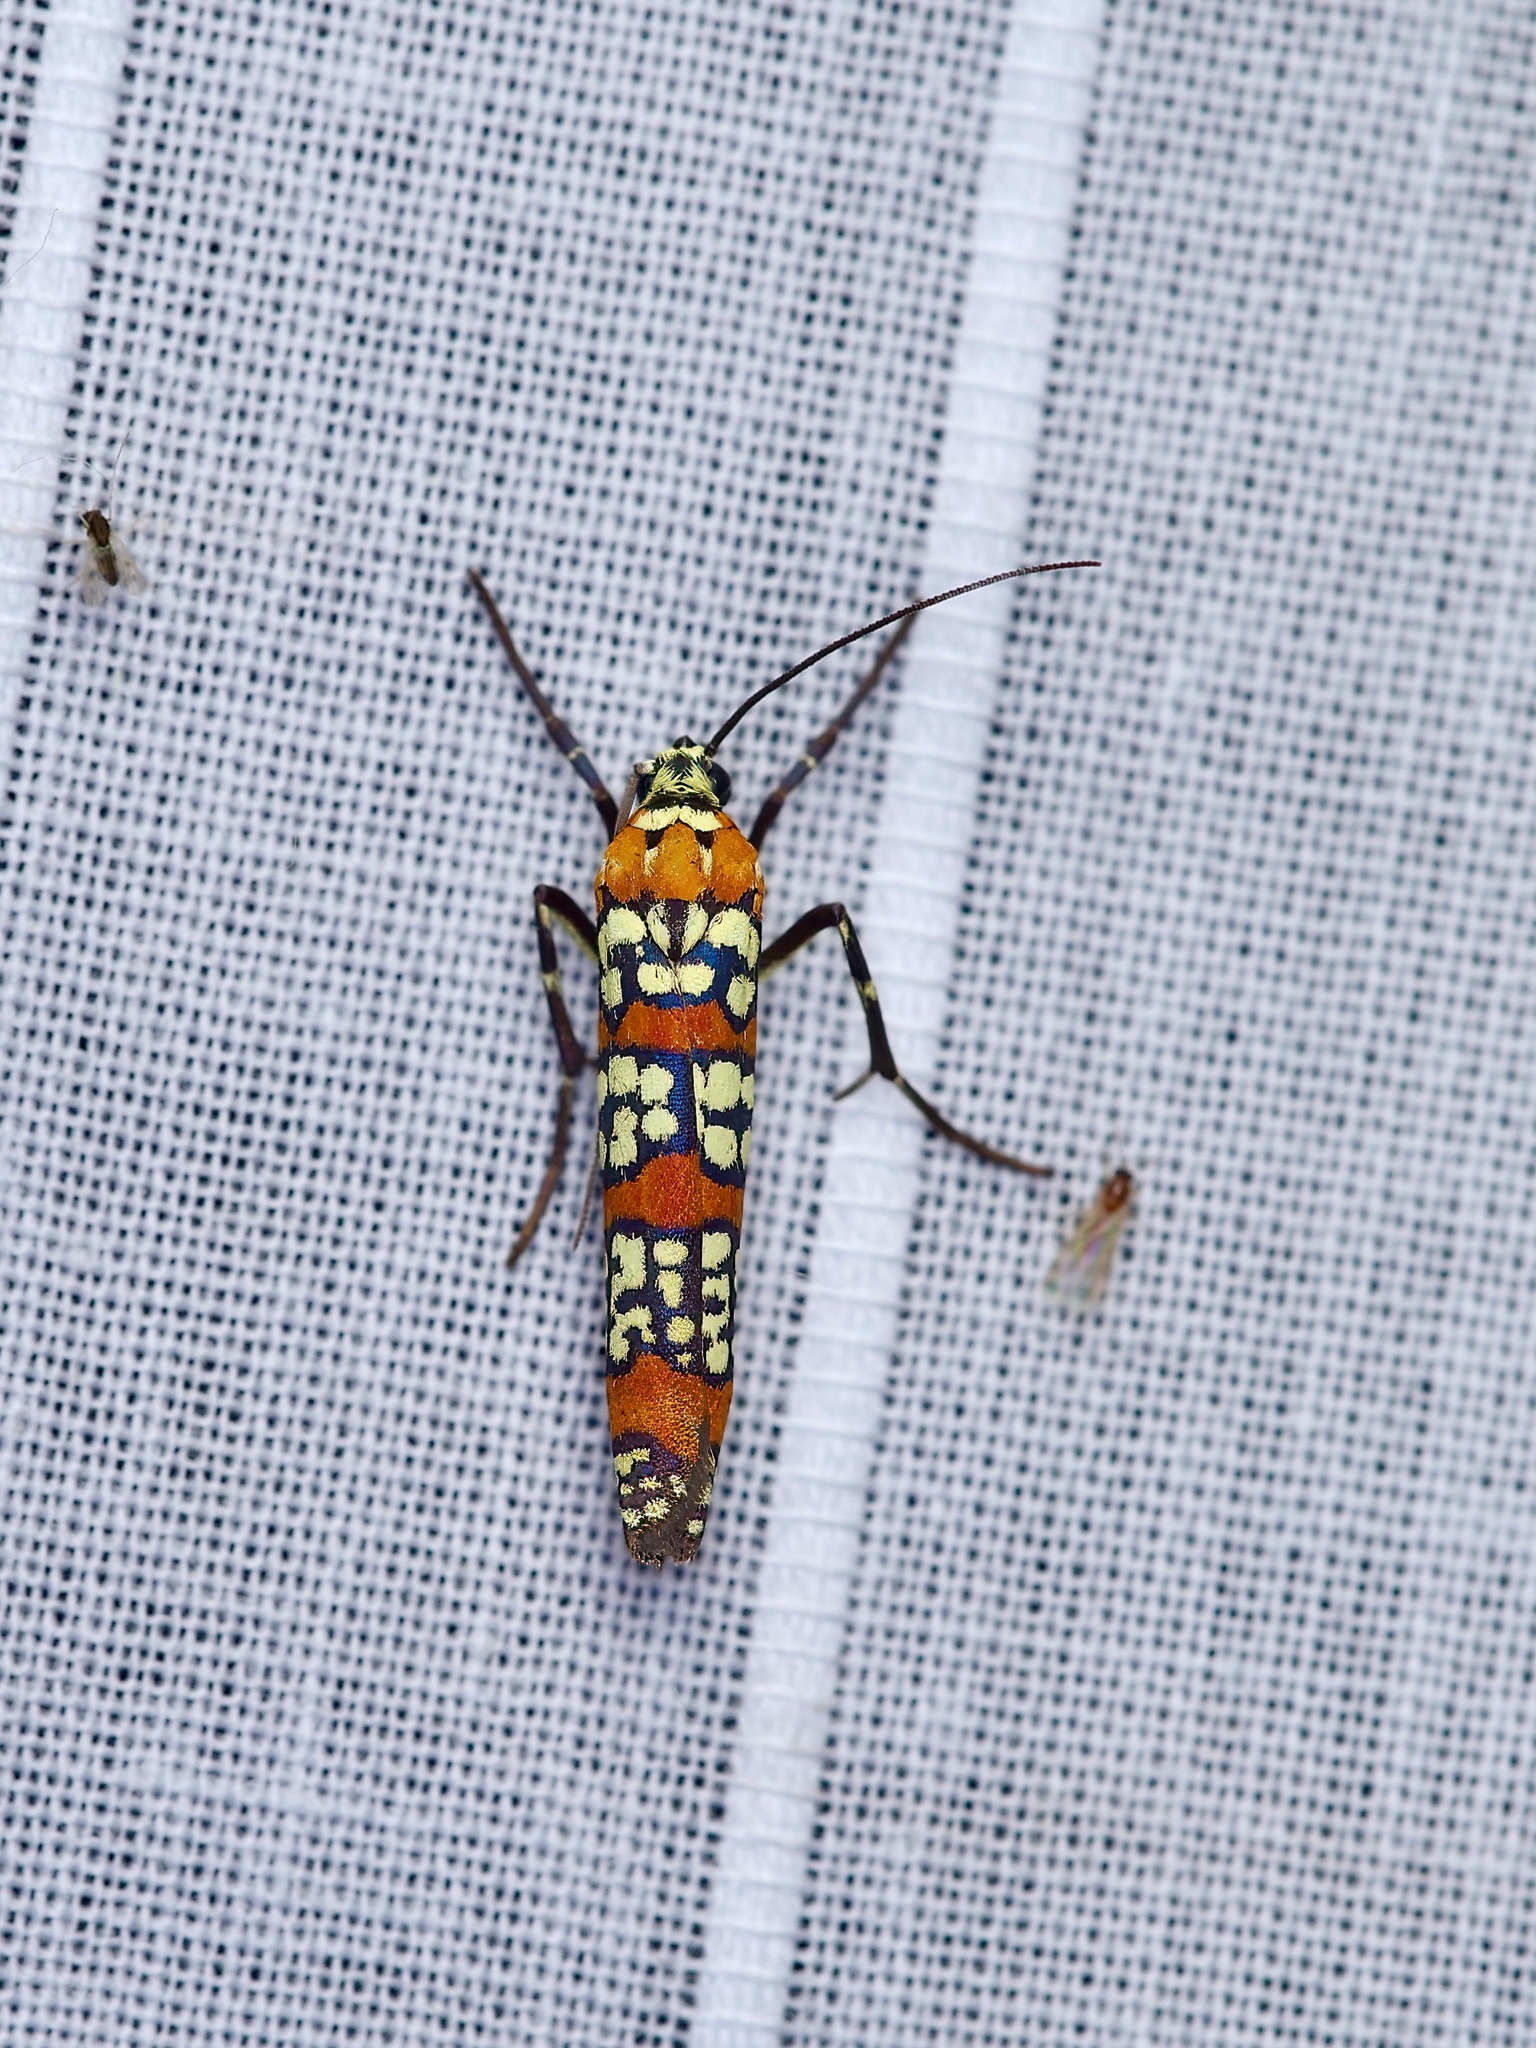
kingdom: Animalia
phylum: Arthropoda
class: Insecta
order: Lepidoptera
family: Attevidae
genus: Atteva
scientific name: Atteva punctella
